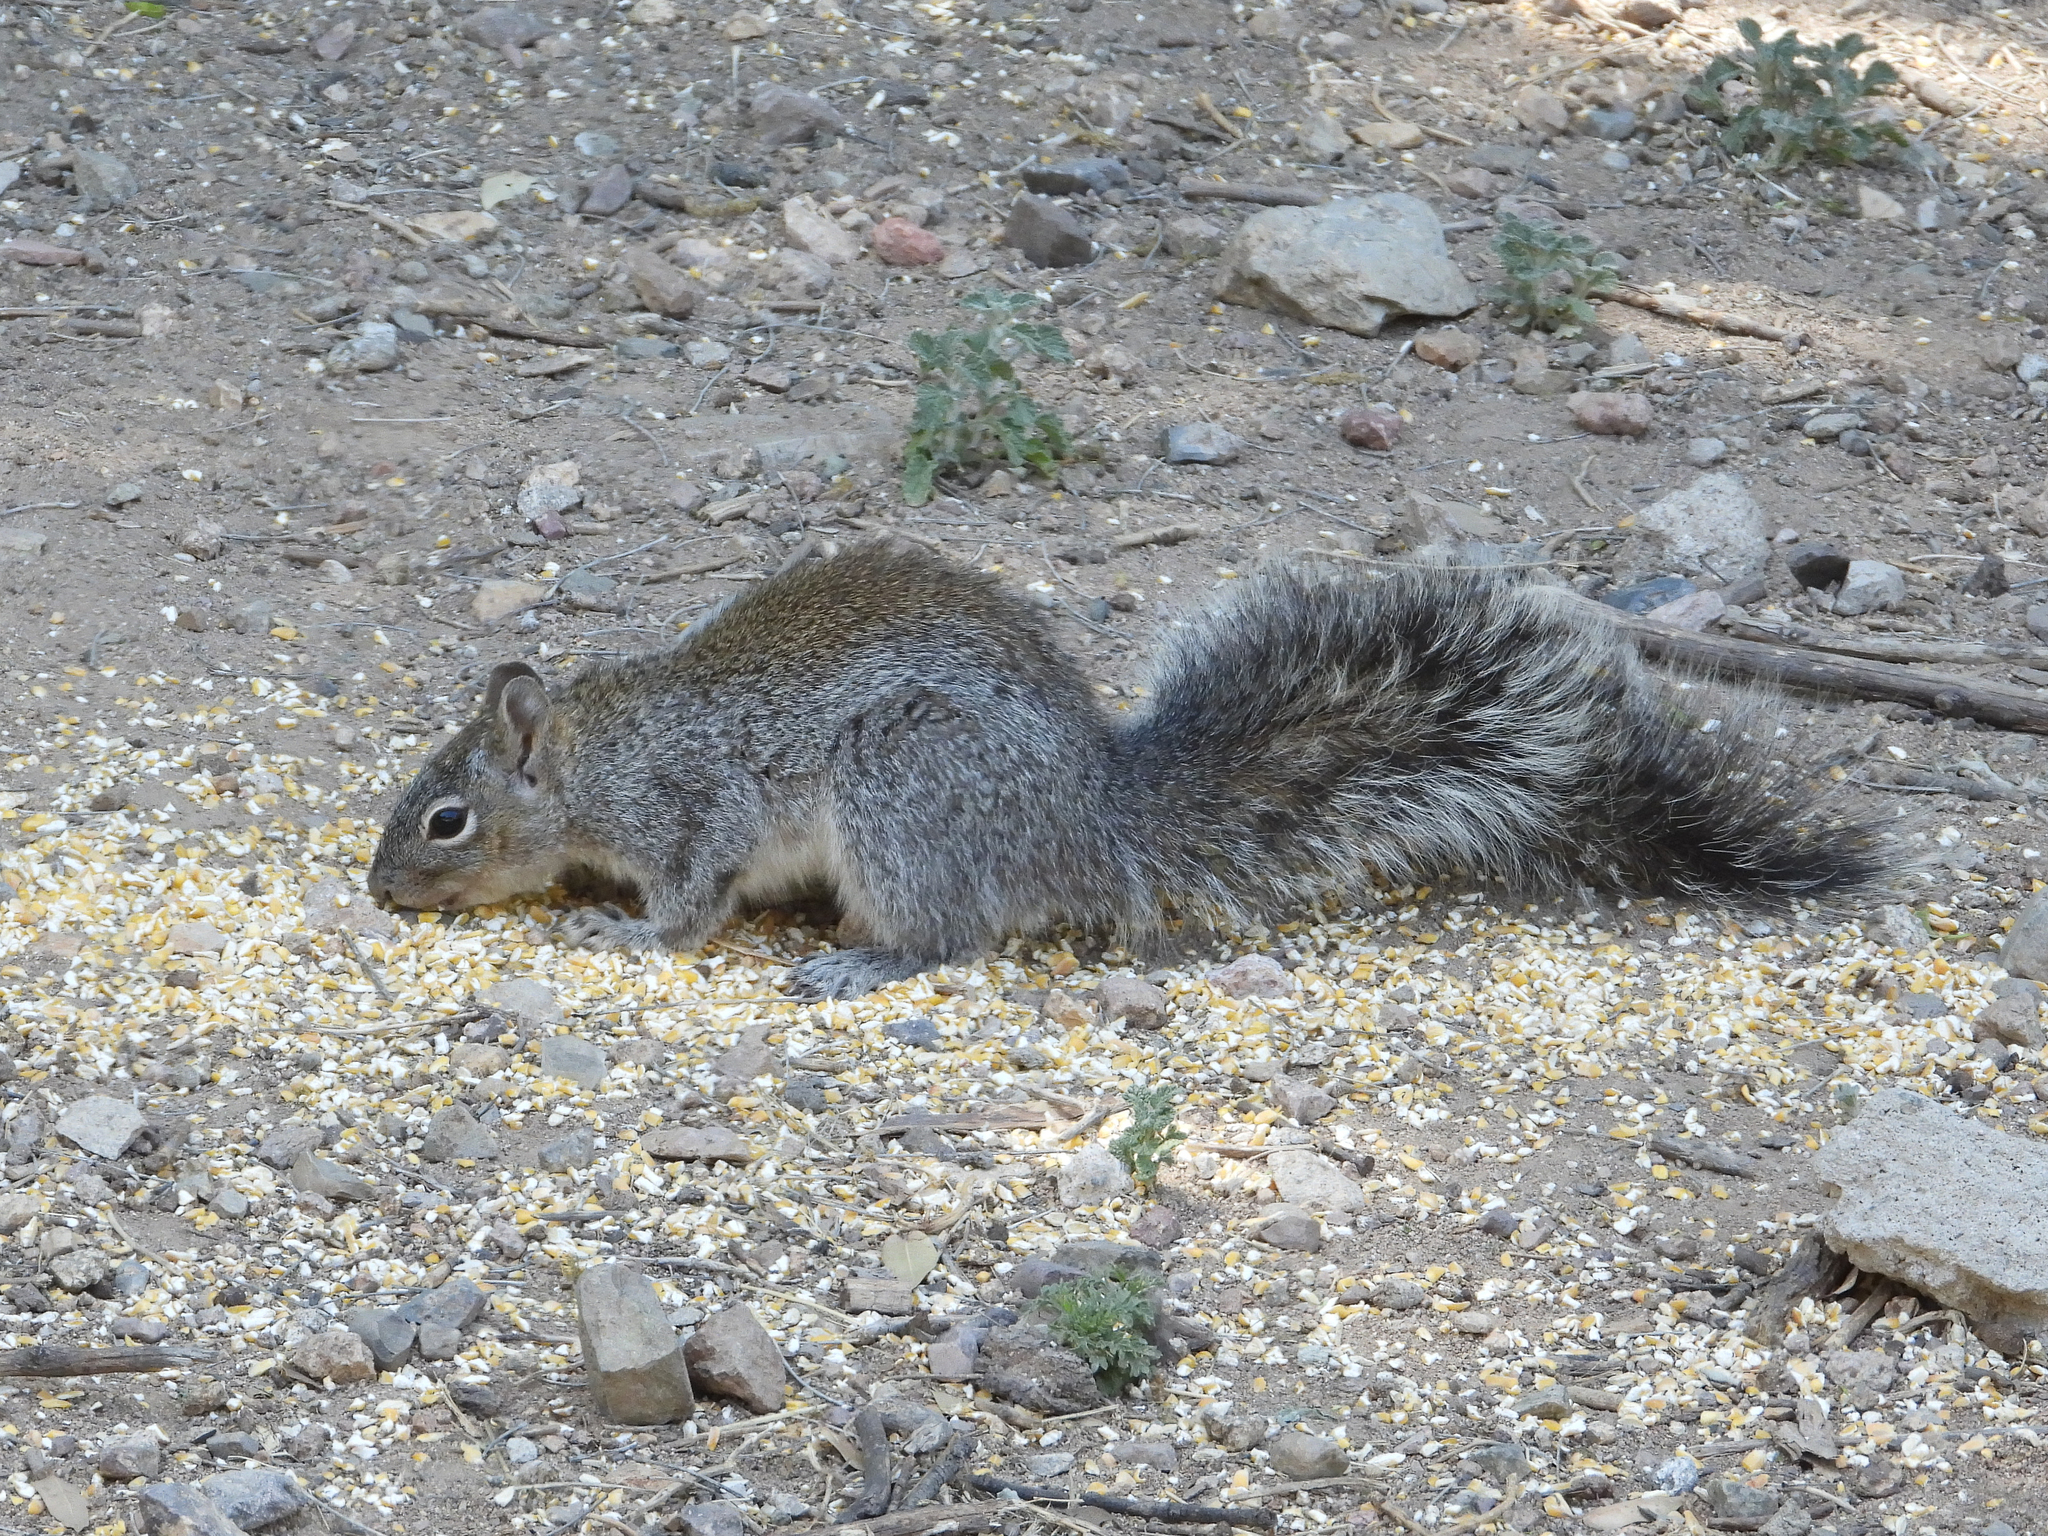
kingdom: Animalia
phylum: Chordata
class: Mammalia
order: Rodentia
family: Sciuridae
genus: Sciurus
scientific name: Sciurus arizonensis
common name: Arizona gray squirrel
